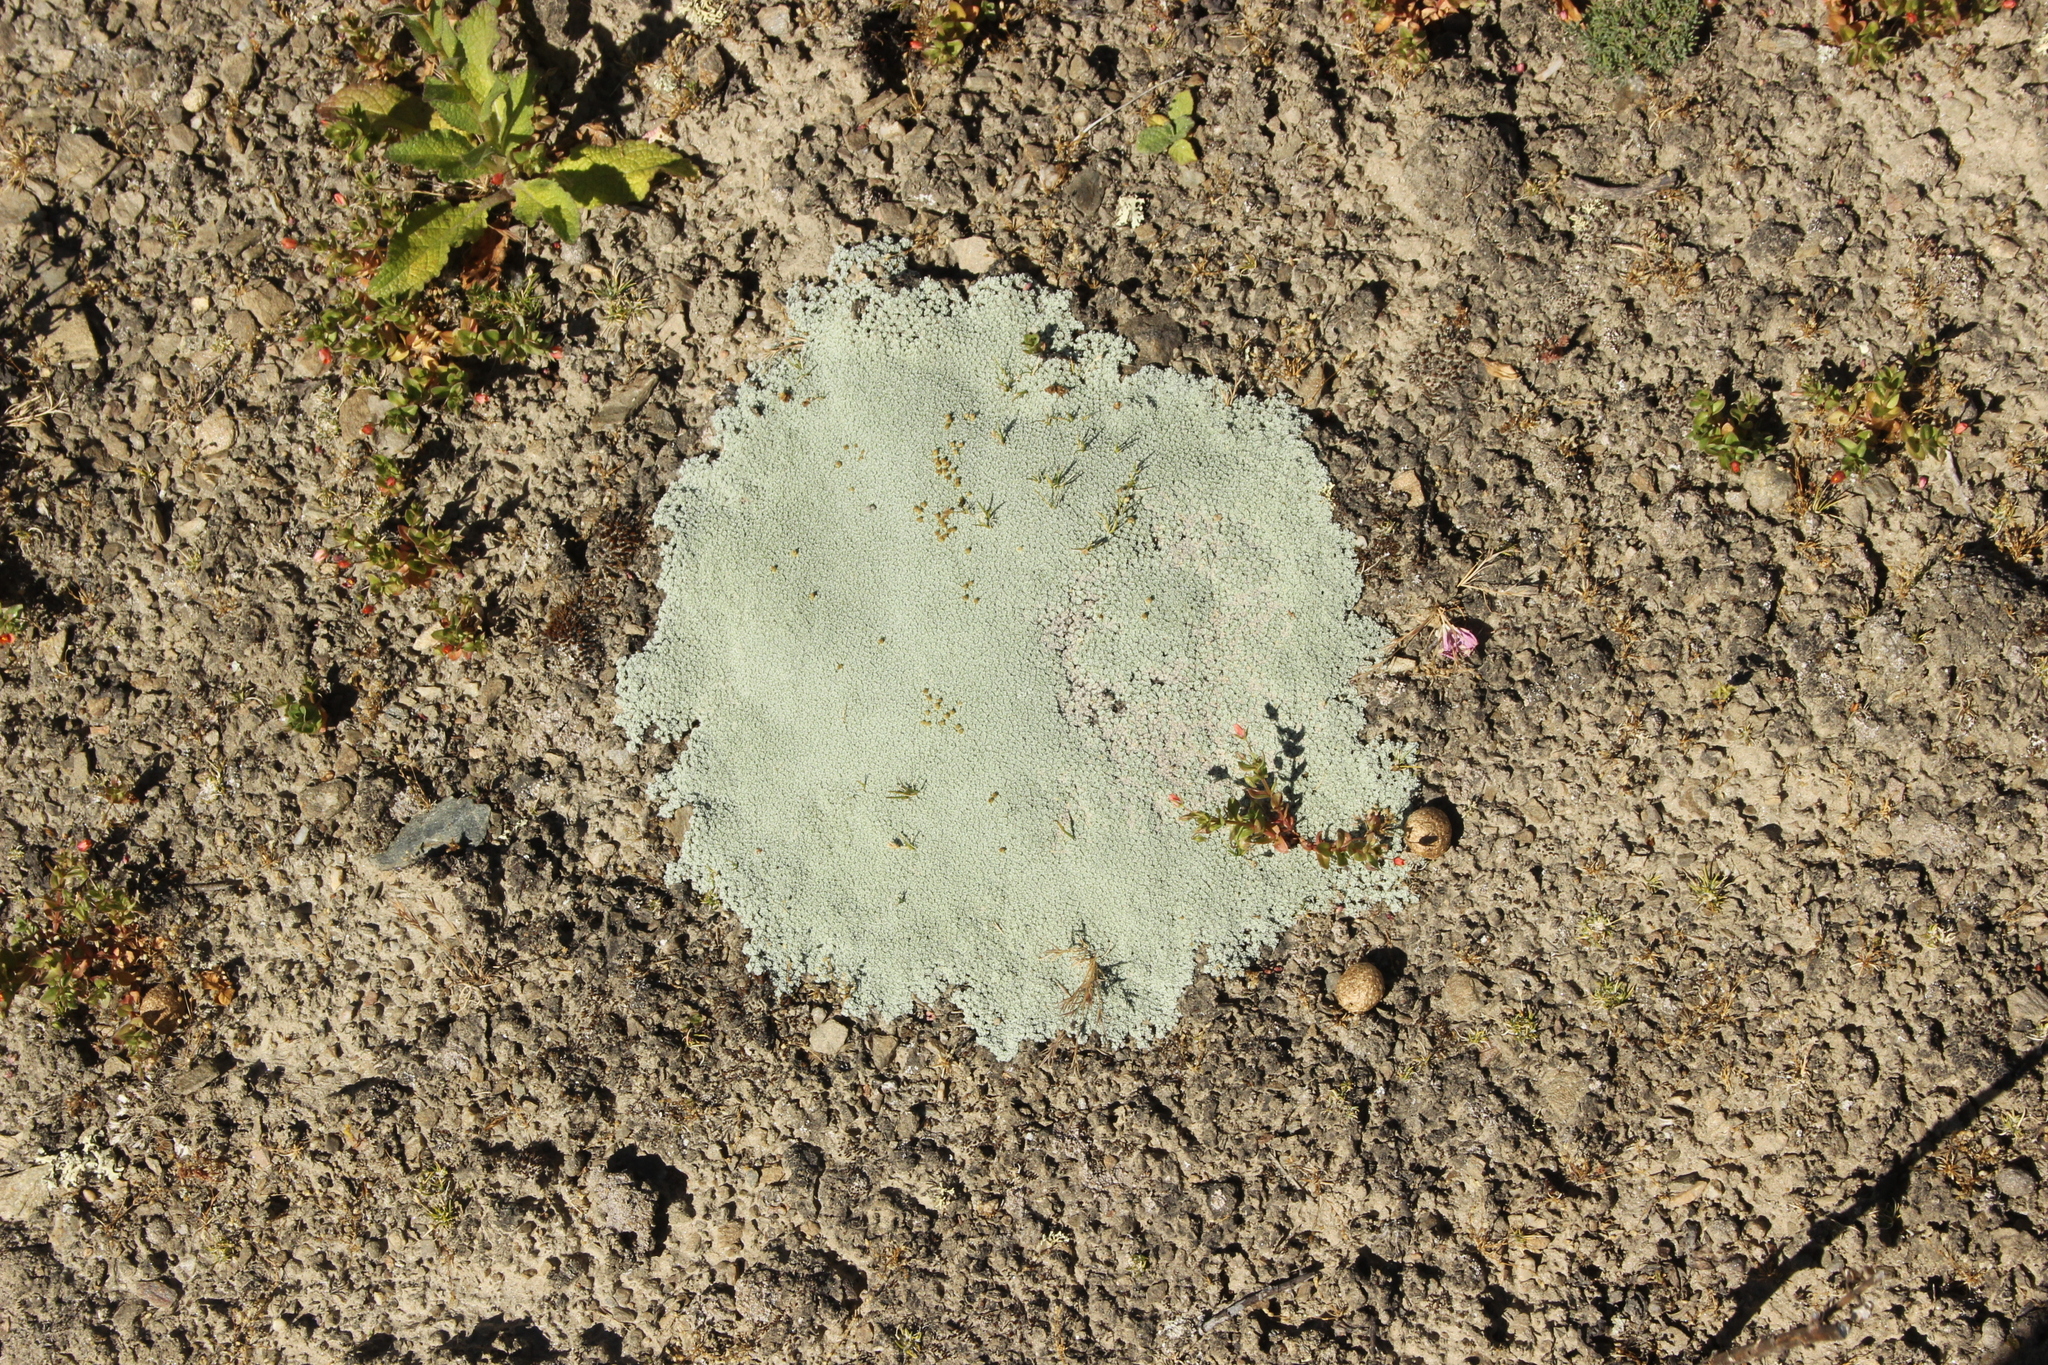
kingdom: Plantae
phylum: Tracheophyta
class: Magnoliopsida
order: Asterales
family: Asteraceae
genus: Raoulia
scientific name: Raoulia australis
